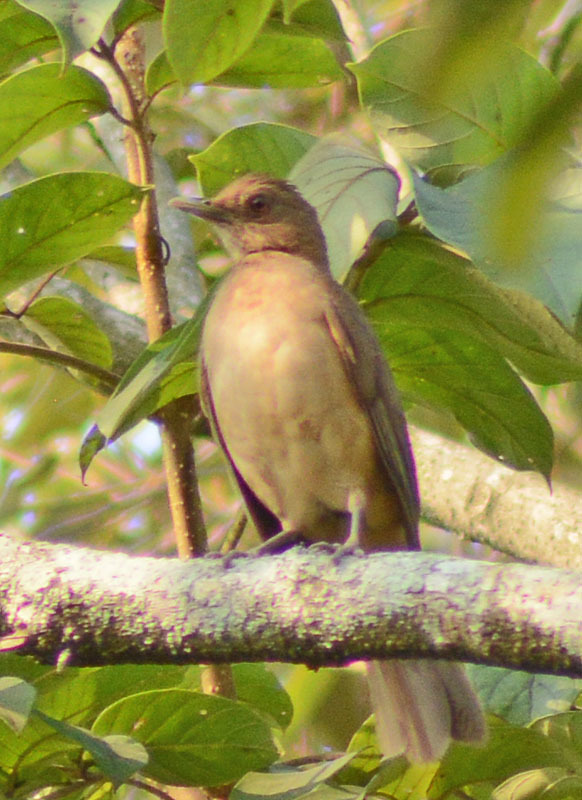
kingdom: Animalia
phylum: Chordata
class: Aves
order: Passeriformes
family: Turdidae
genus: Turdus
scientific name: Turdus grayi
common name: Clay-colored thrush
